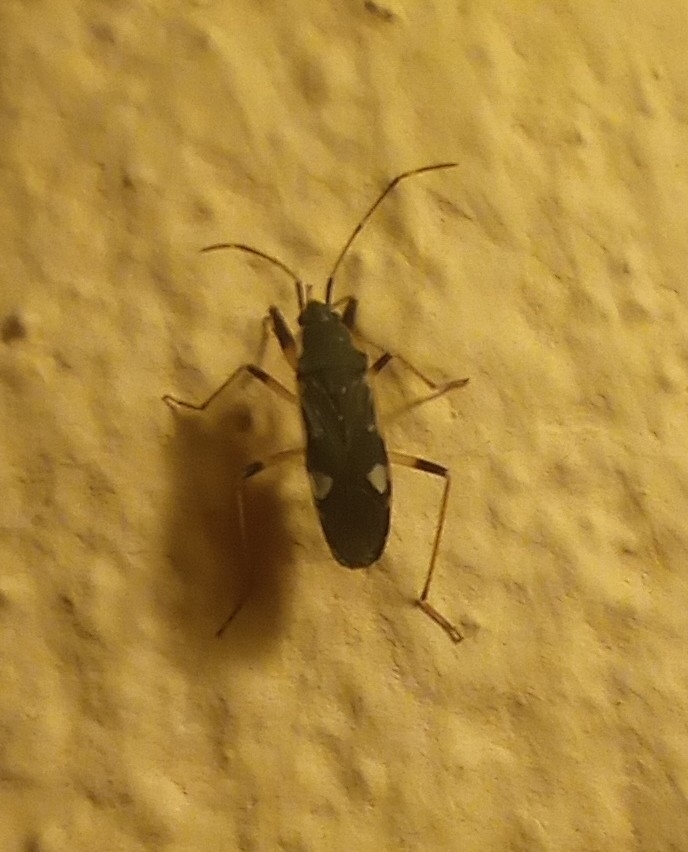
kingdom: Animalia
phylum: Arthropoda
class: Insecta
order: Hemiptera
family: Rhyparochromidae
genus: Dieuches
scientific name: Dieuches armatipes
